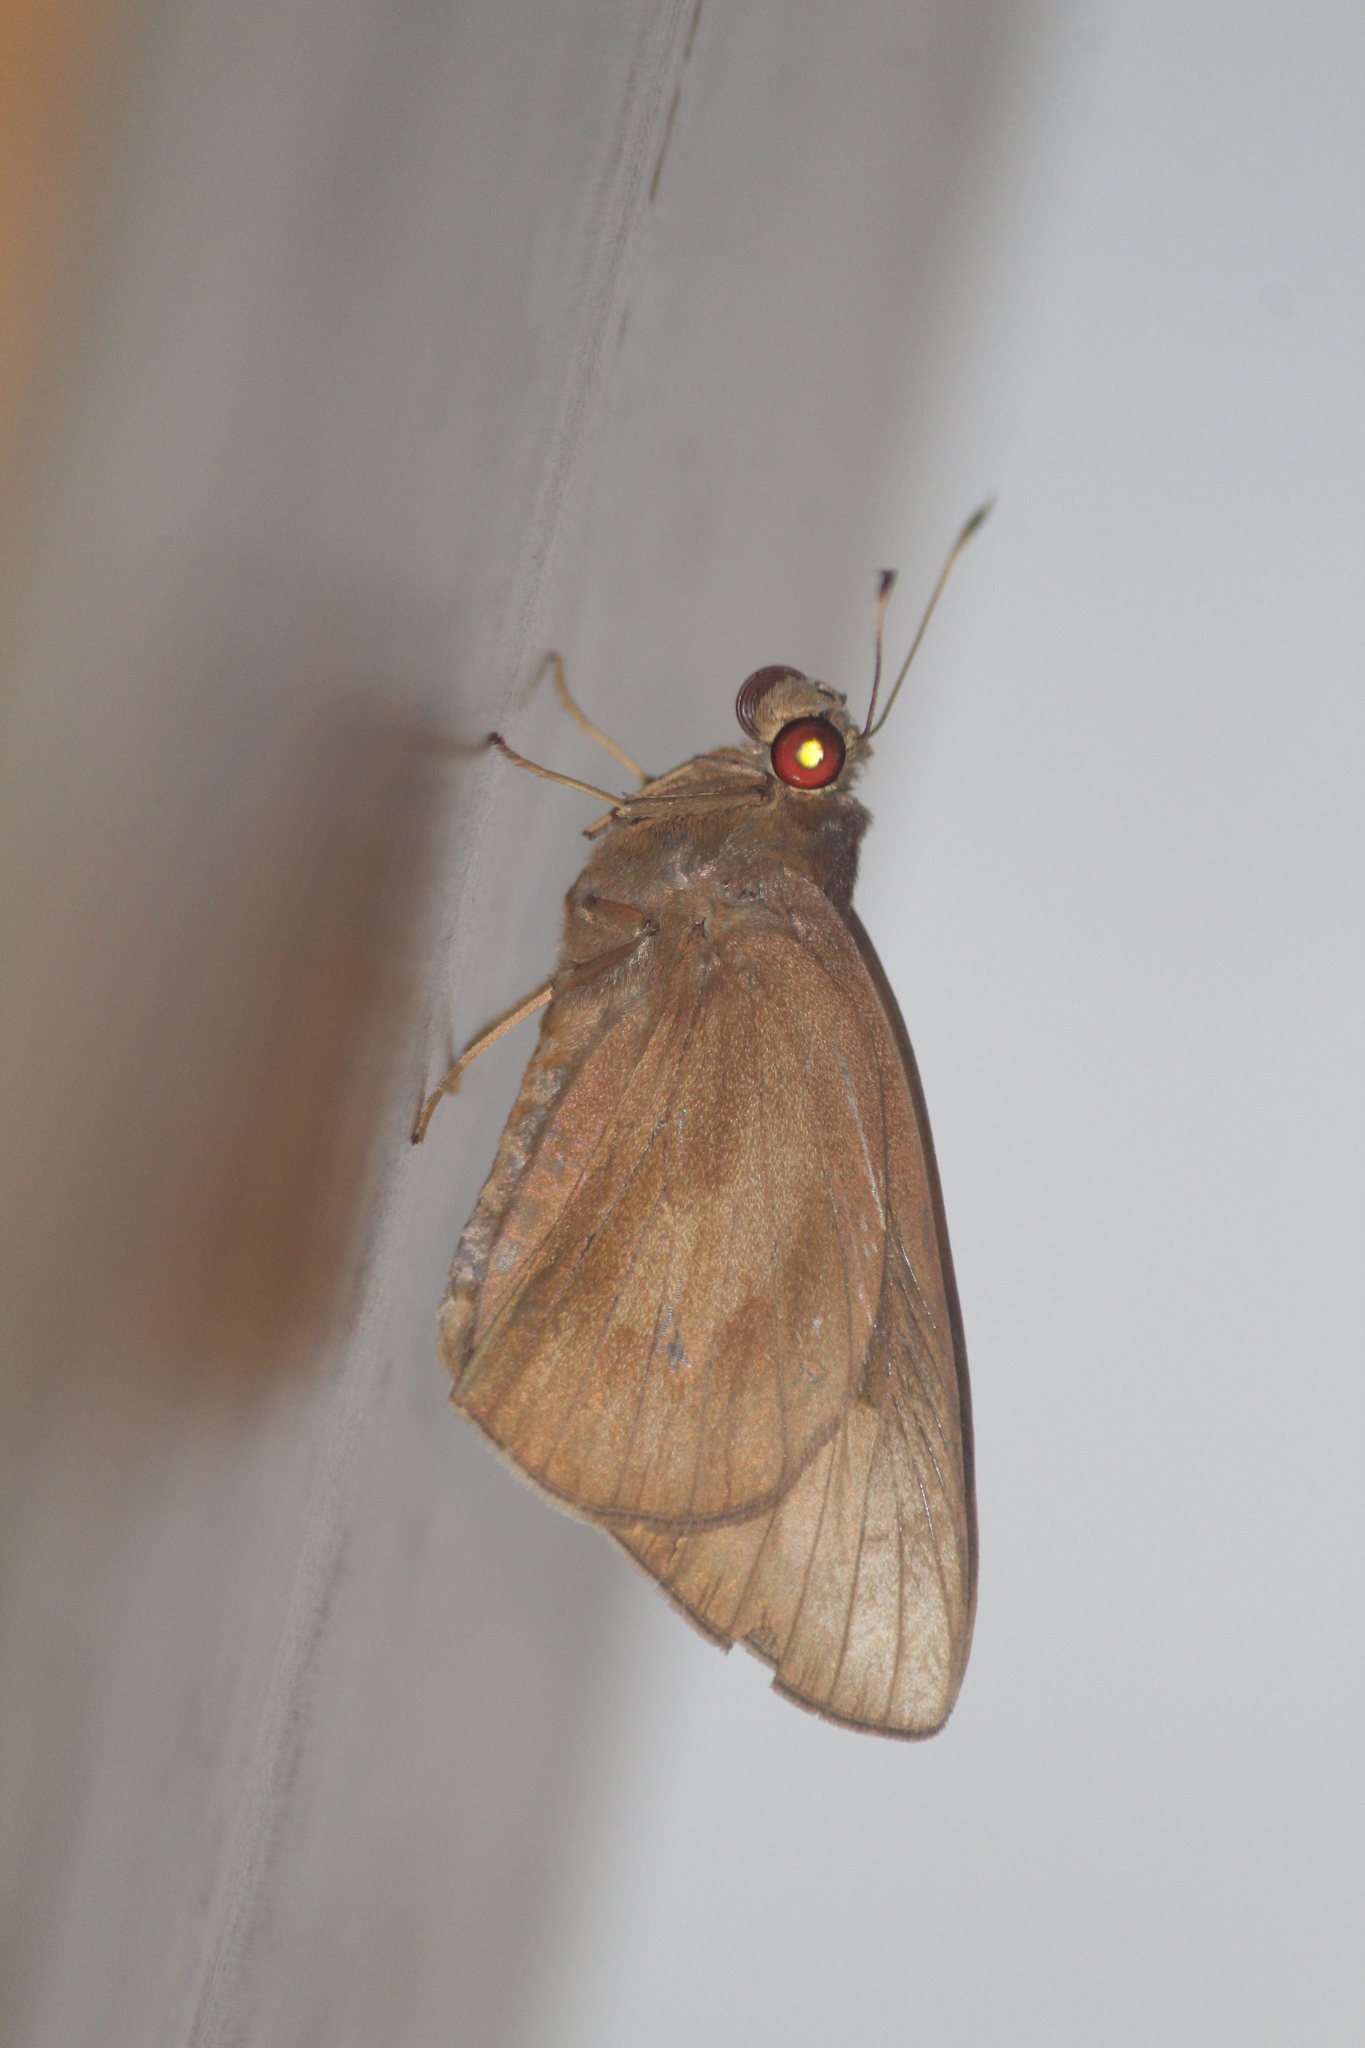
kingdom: Animalia
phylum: Arthropoda
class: Insecta
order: Lepidoptera
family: Hesperiidae
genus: Erionota
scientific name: Erionota torus
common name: Rounded palm-redeye
